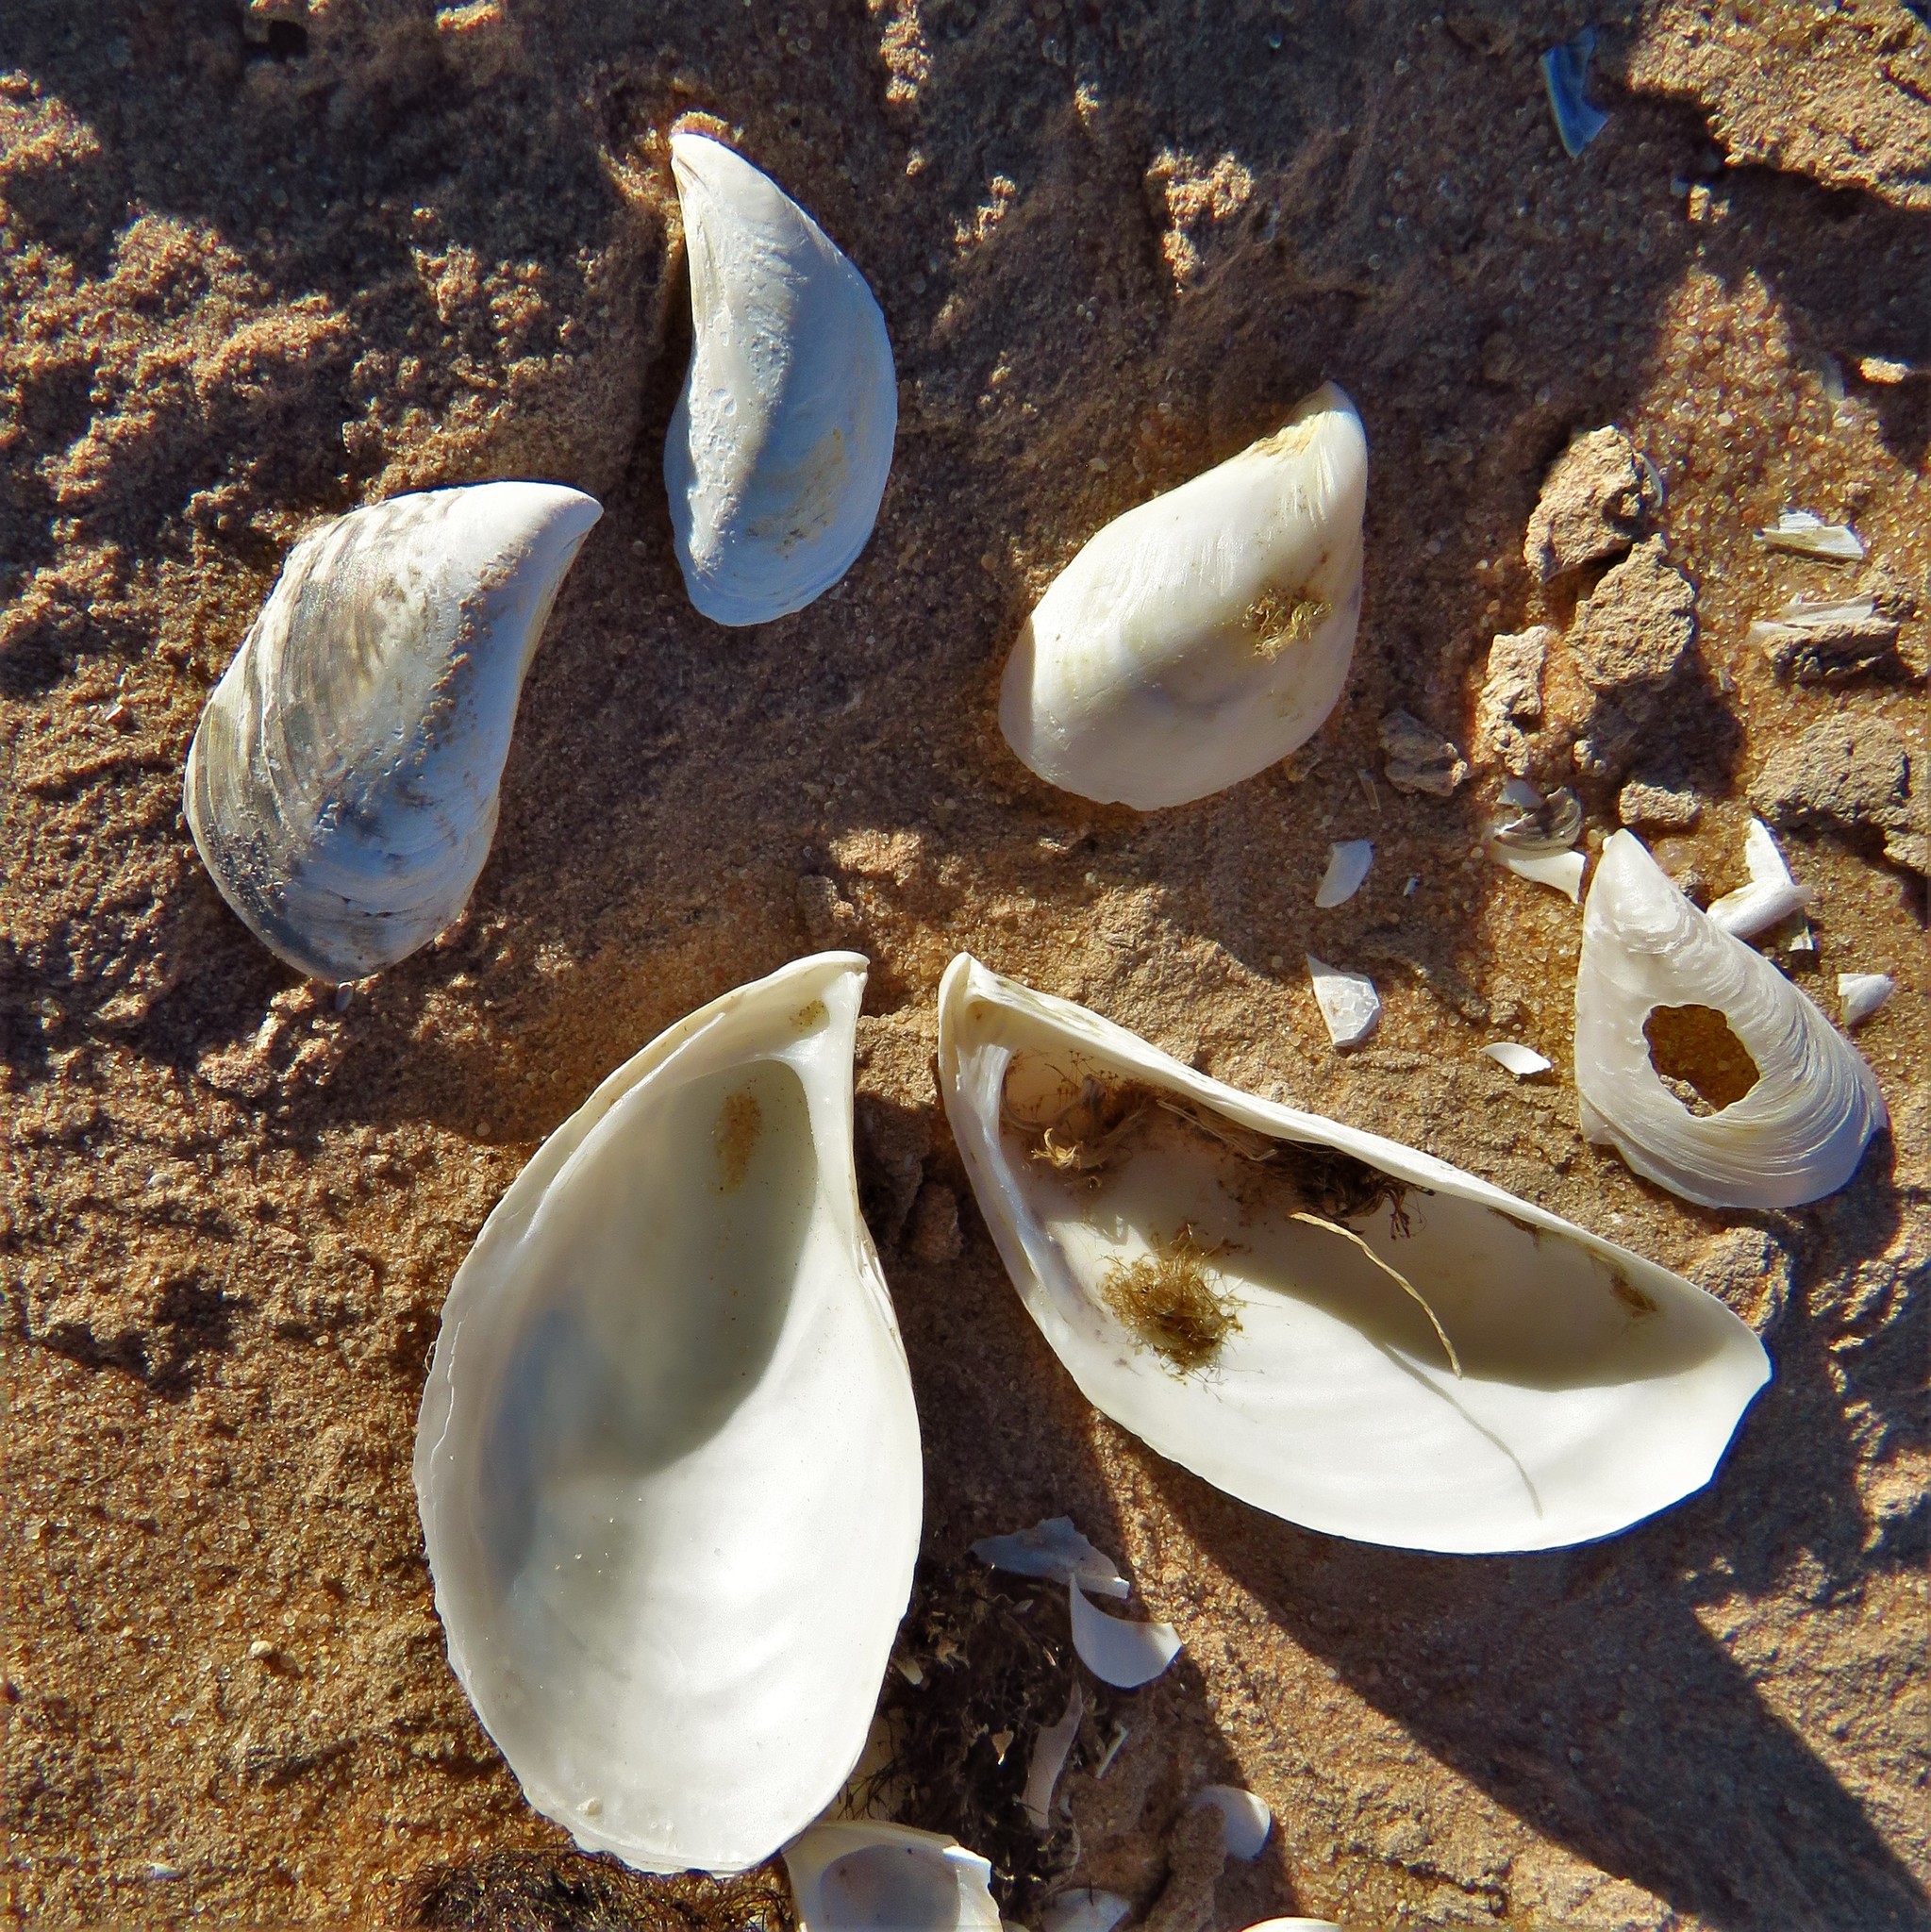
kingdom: Animalia
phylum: Mollusca
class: Bivalvia
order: Myida
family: Dreissenidae
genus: Dreissena
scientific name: Dreissena bugensis
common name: Quagga mussel
